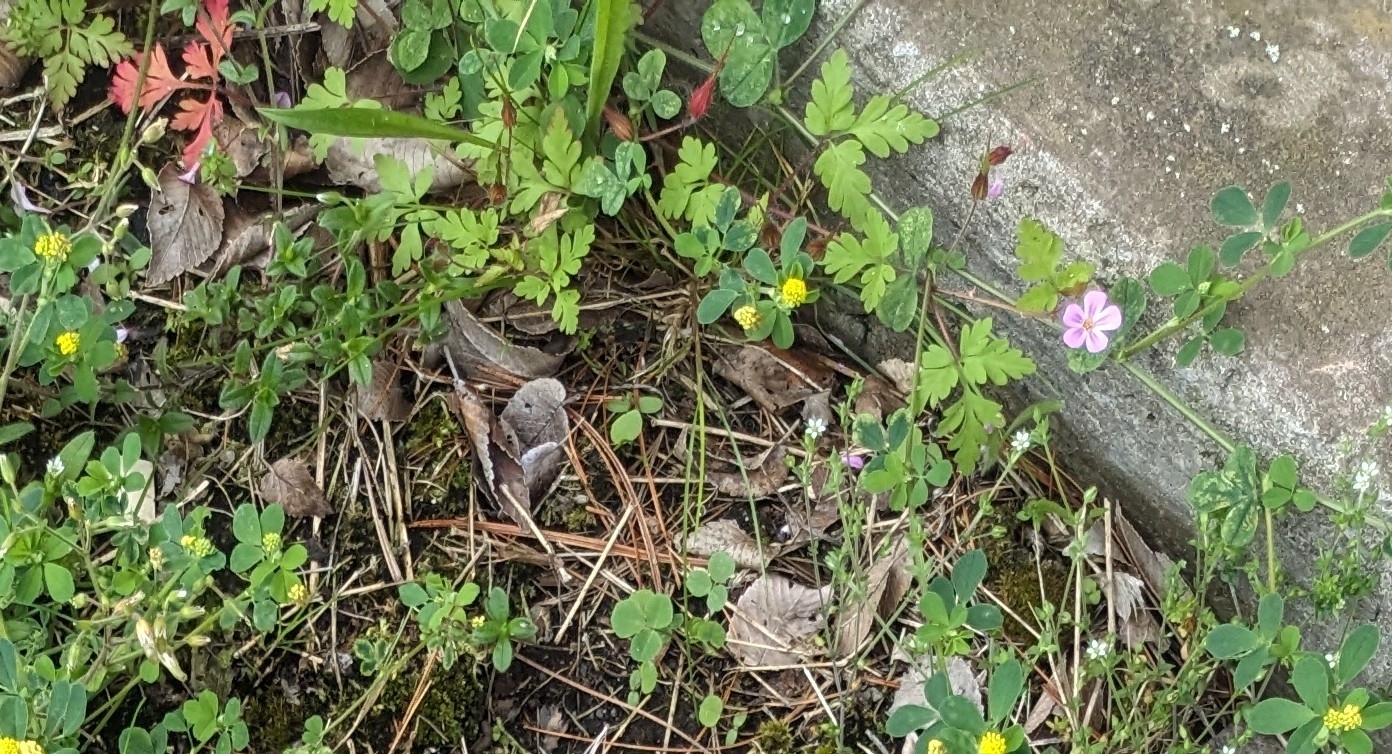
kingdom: Plantae
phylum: Tracheophyta
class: Magnoliopsida
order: Geraniales
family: Geraniaceae
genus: Geranium
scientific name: Geranium robertianum
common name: Herb-robert
